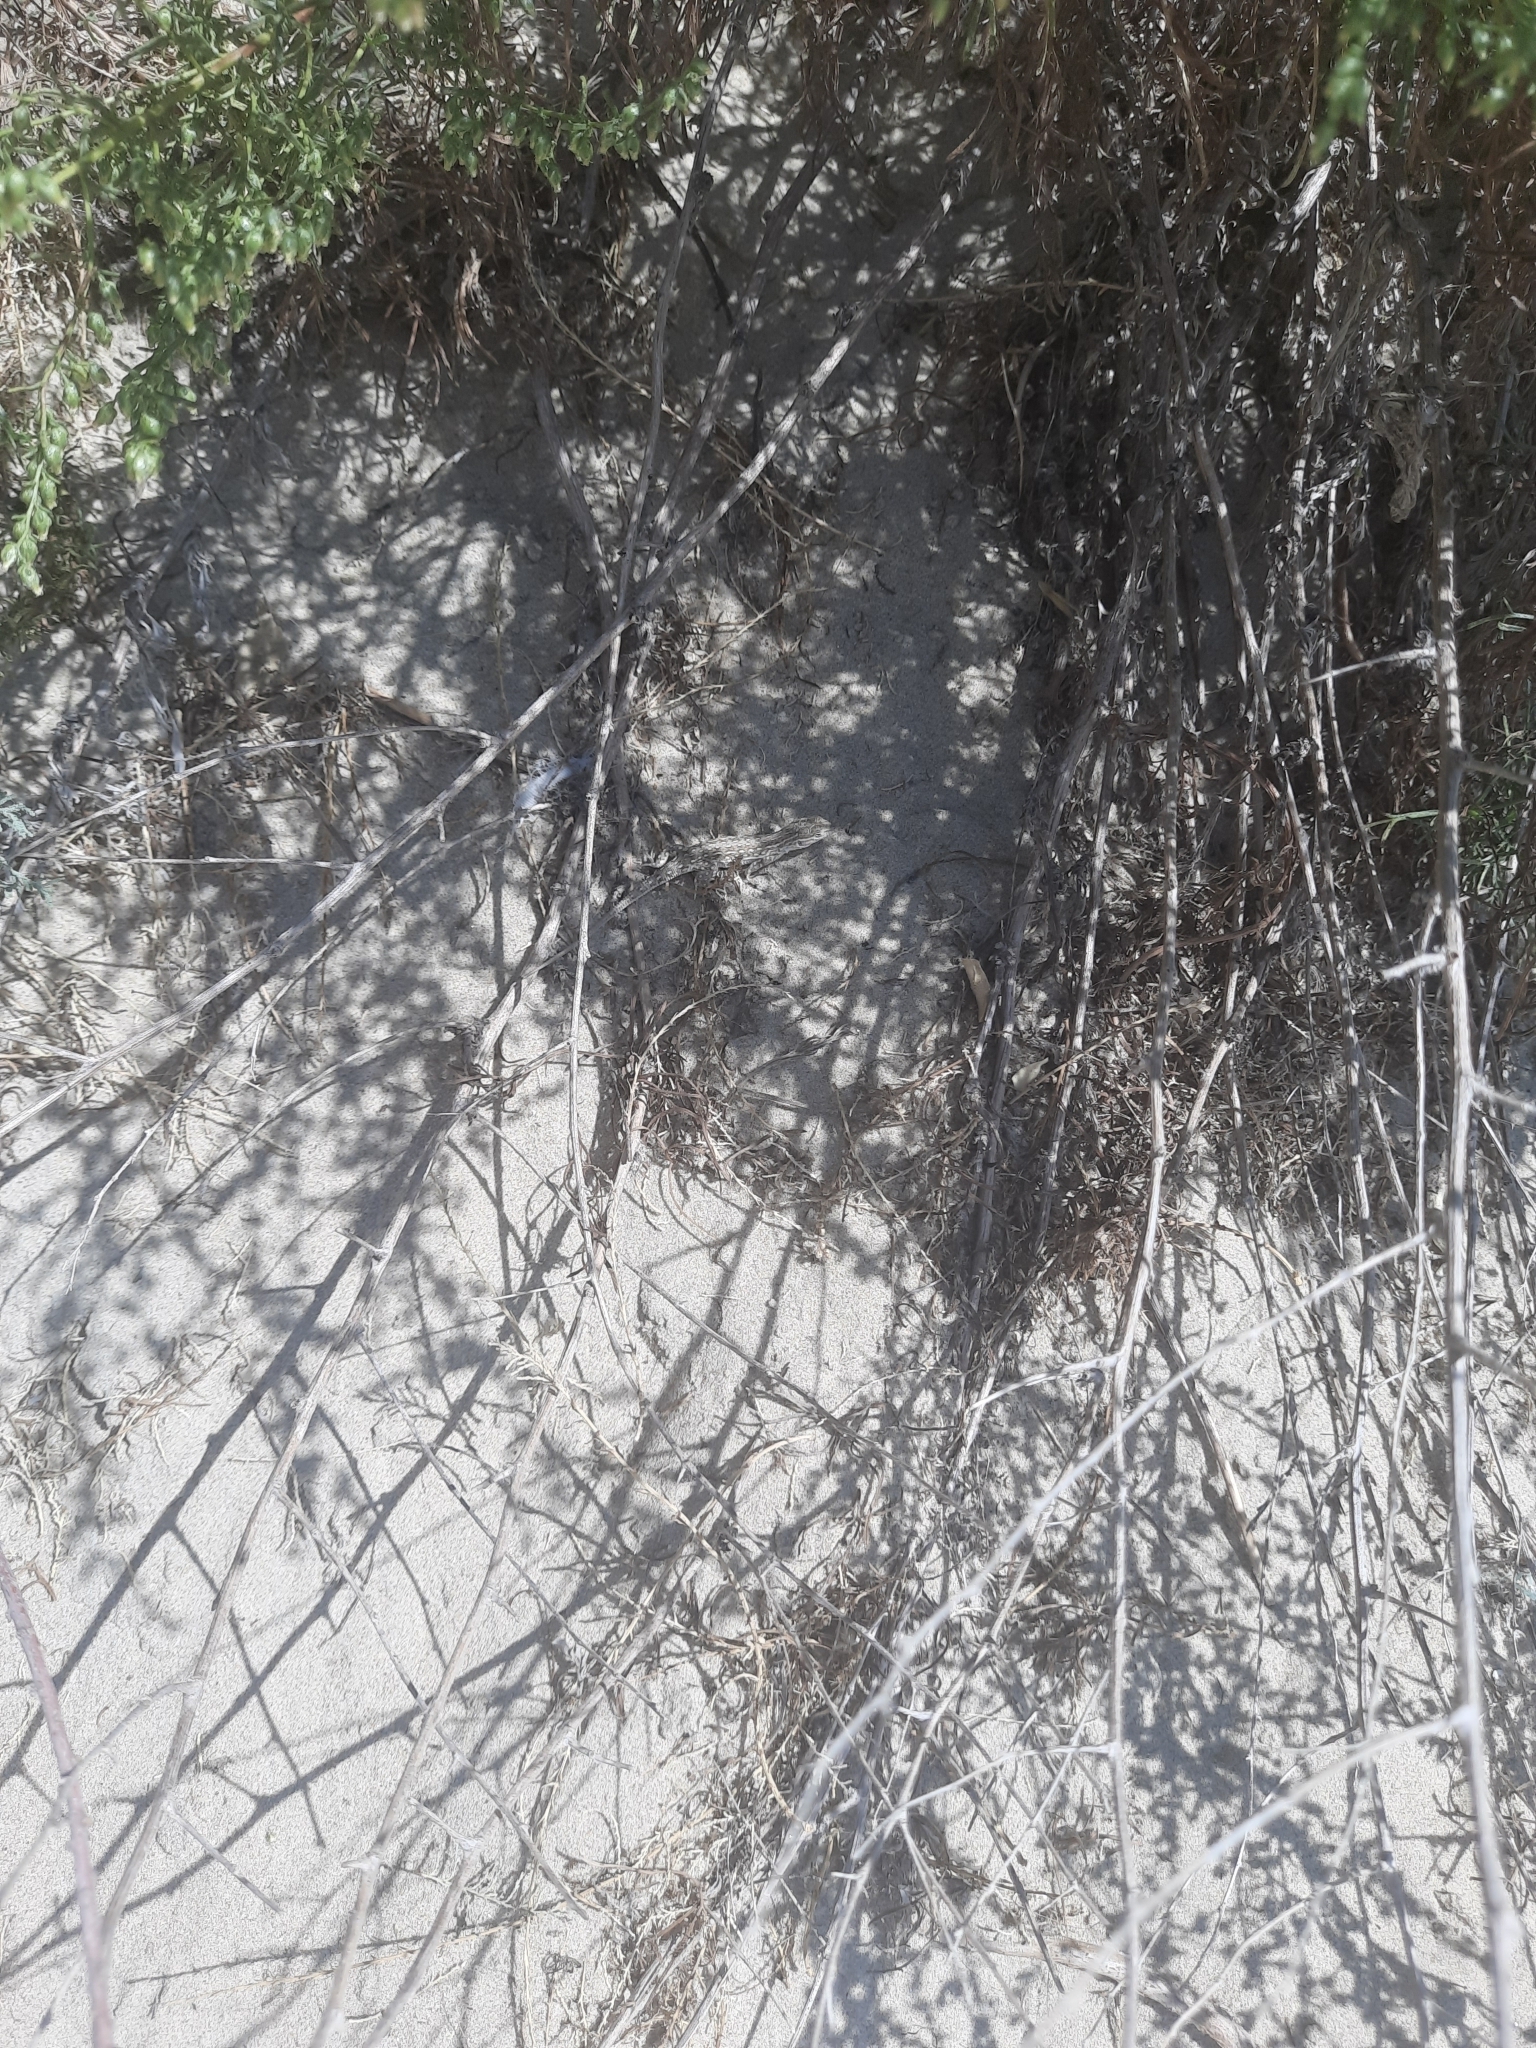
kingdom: Animalia
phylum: Chordata
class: Squamata
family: Lacertidae
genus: Eremias
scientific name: Eremias arguta
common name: Racerunner
